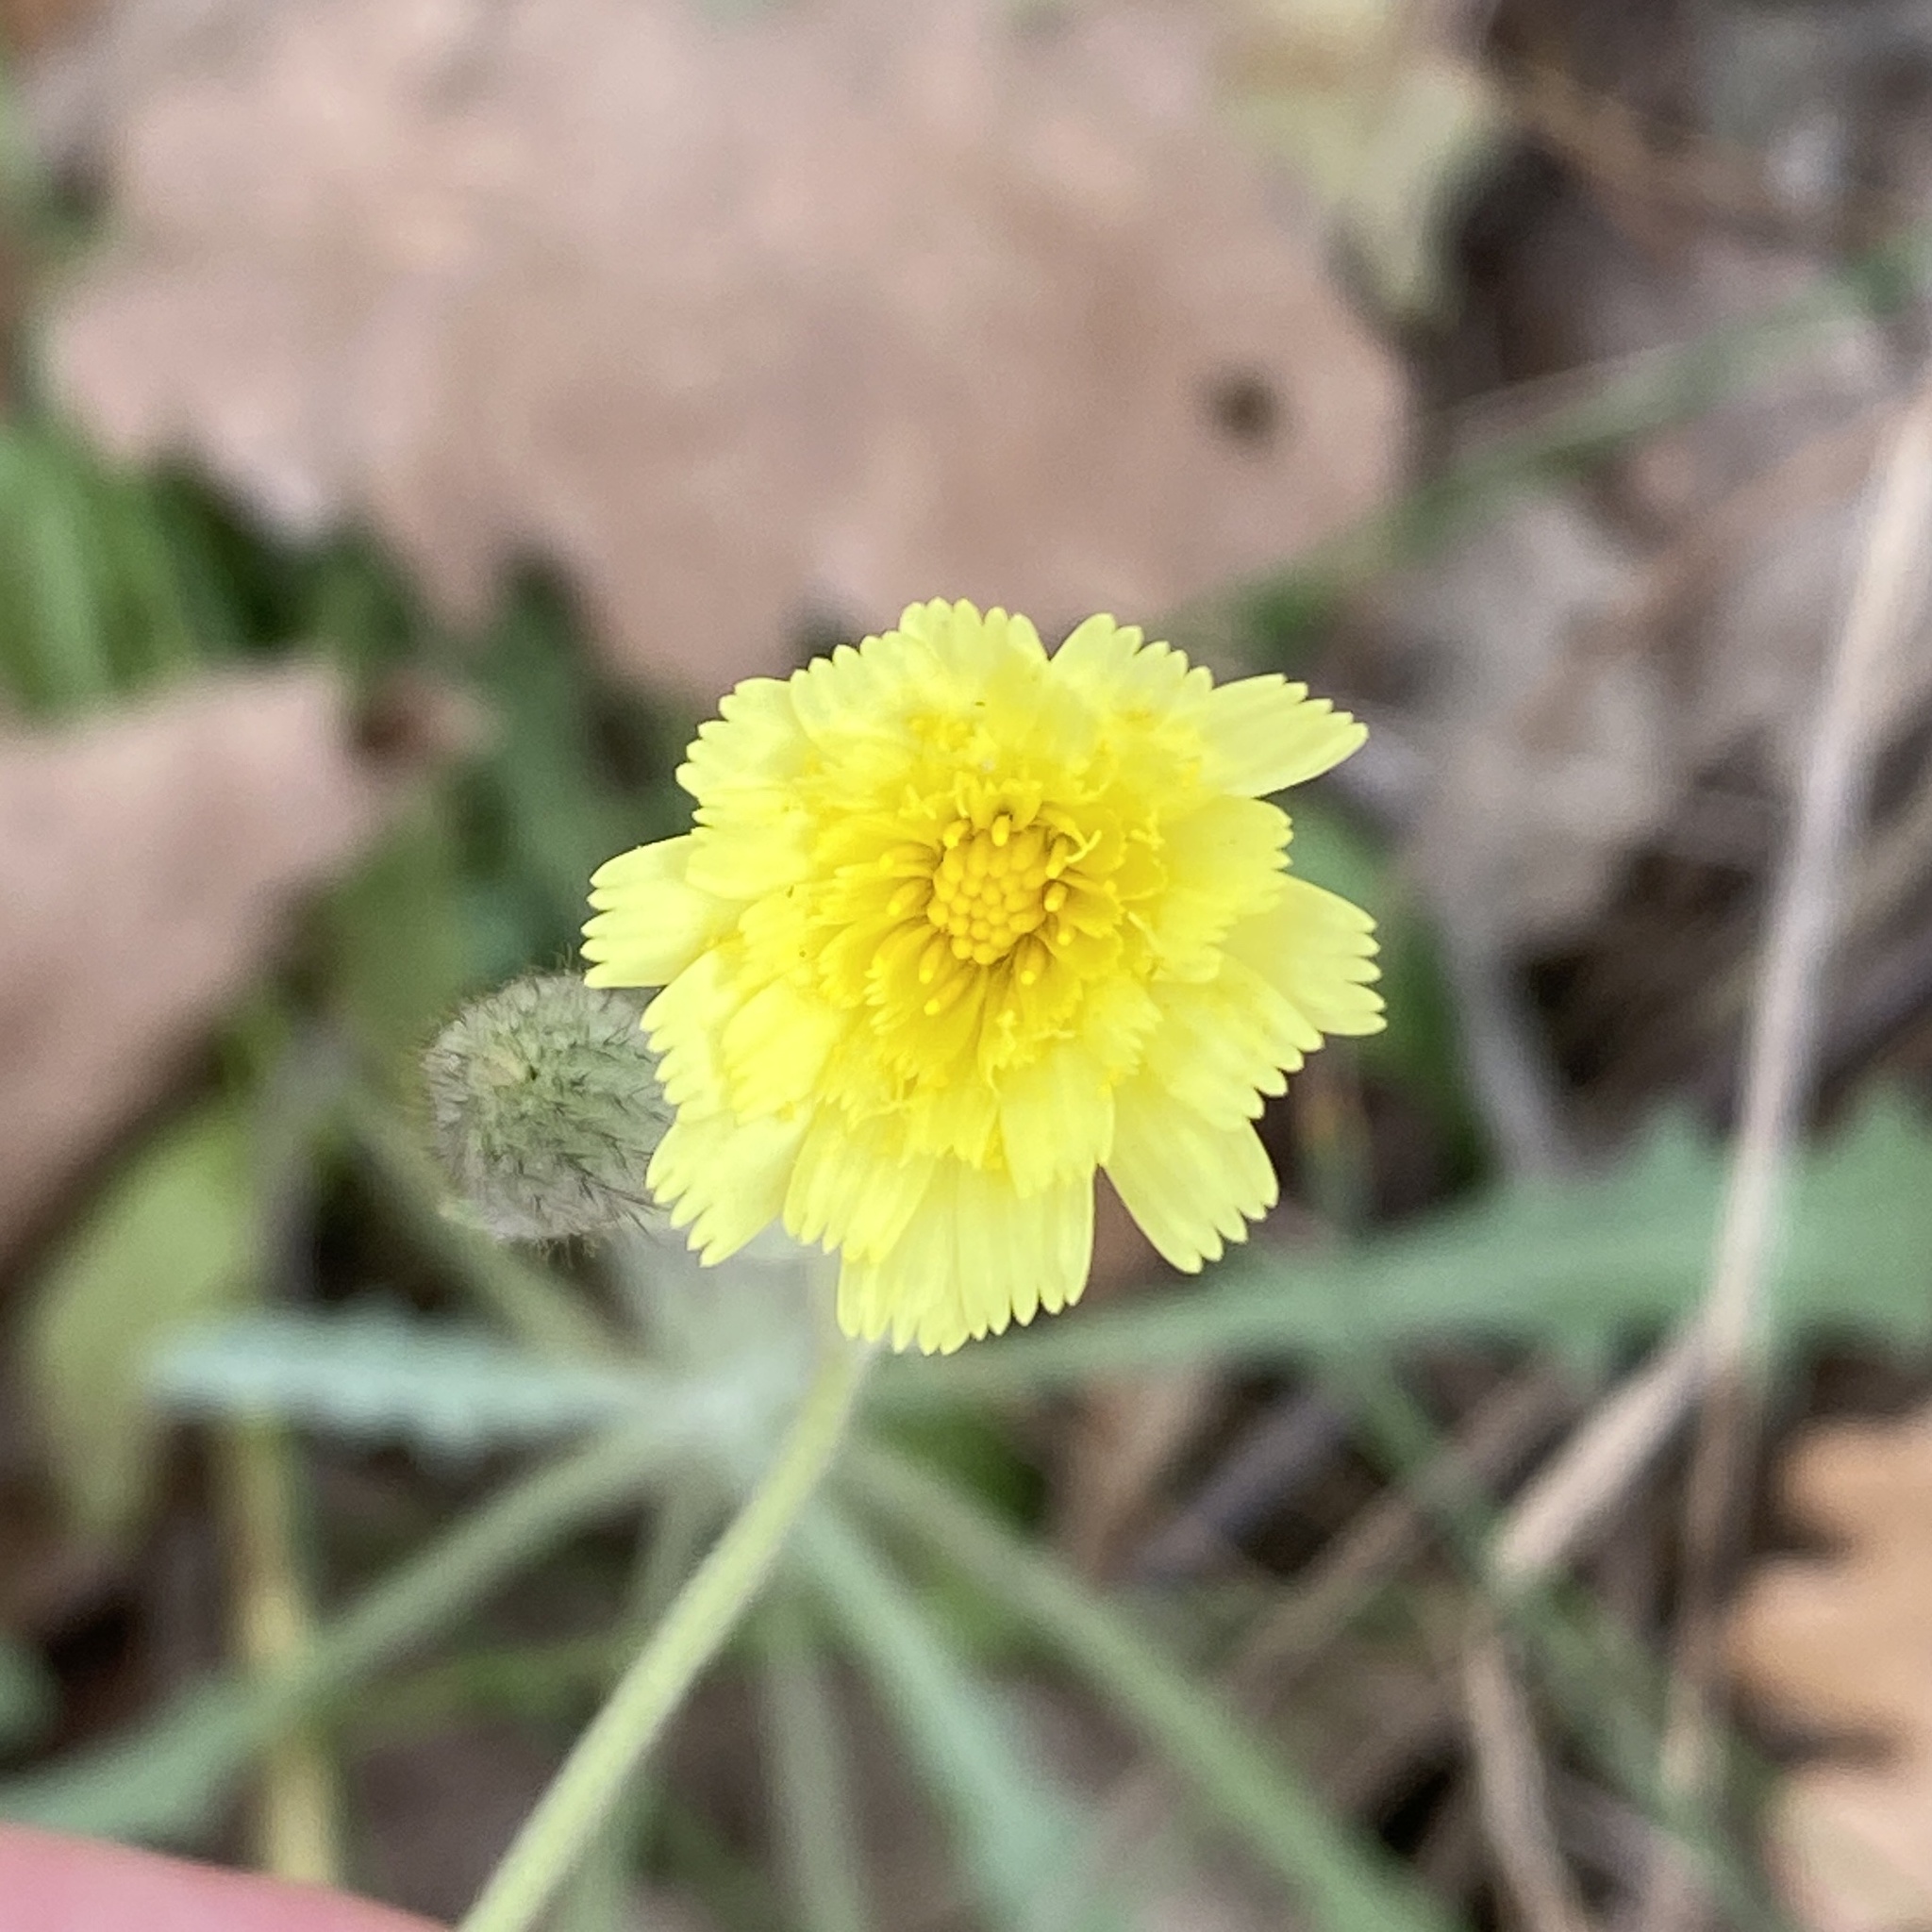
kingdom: Plantae
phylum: Tracheophyta
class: Magnoliopsida
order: Asterales
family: Asteraceae
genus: Andryala
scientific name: Andryala integrifolia
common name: Common andryala
